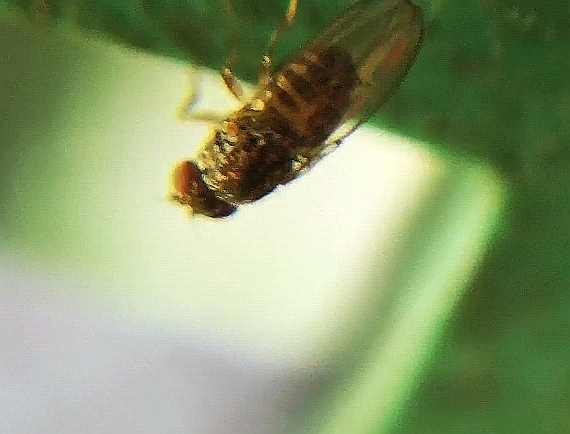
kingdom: Animalia
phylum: Arthropoda
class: Insecta
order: Diptera
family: Drosophilidae
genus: Drosophila
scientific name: Drosophila repleta
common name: Pomace fly
